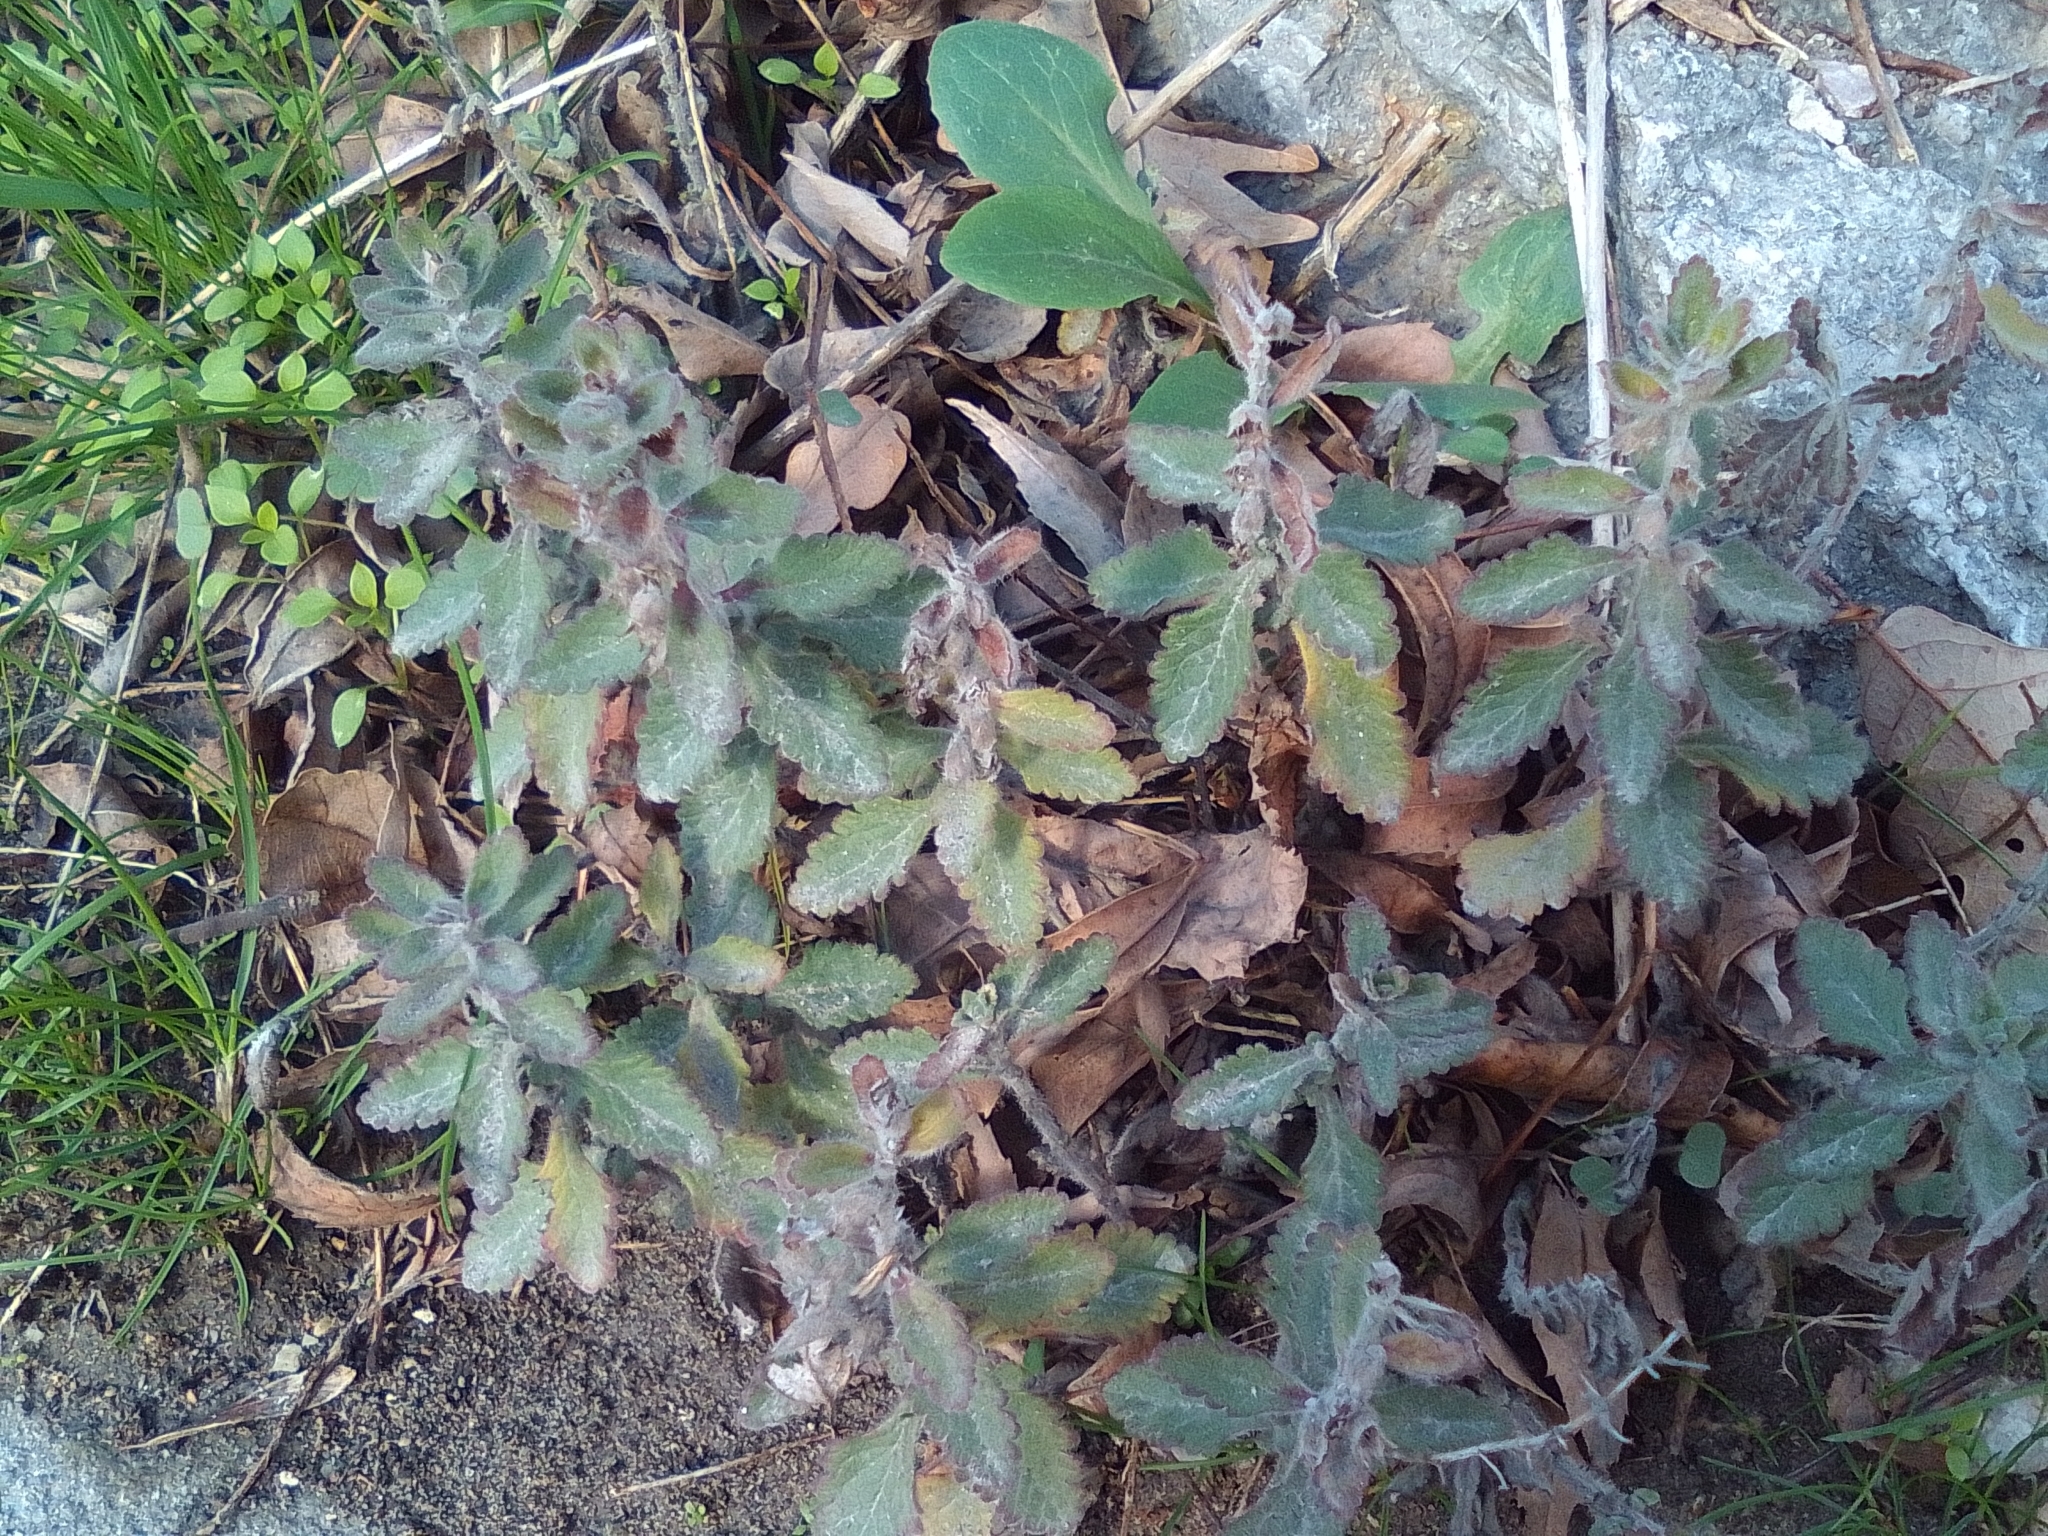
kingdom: Plantae
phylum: Tracheophyta
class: Magnoliopsida
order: Lamiales
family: Lamiaceae
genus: Teucrium
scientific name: Teucrium chamaedrys
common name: Wall germander
